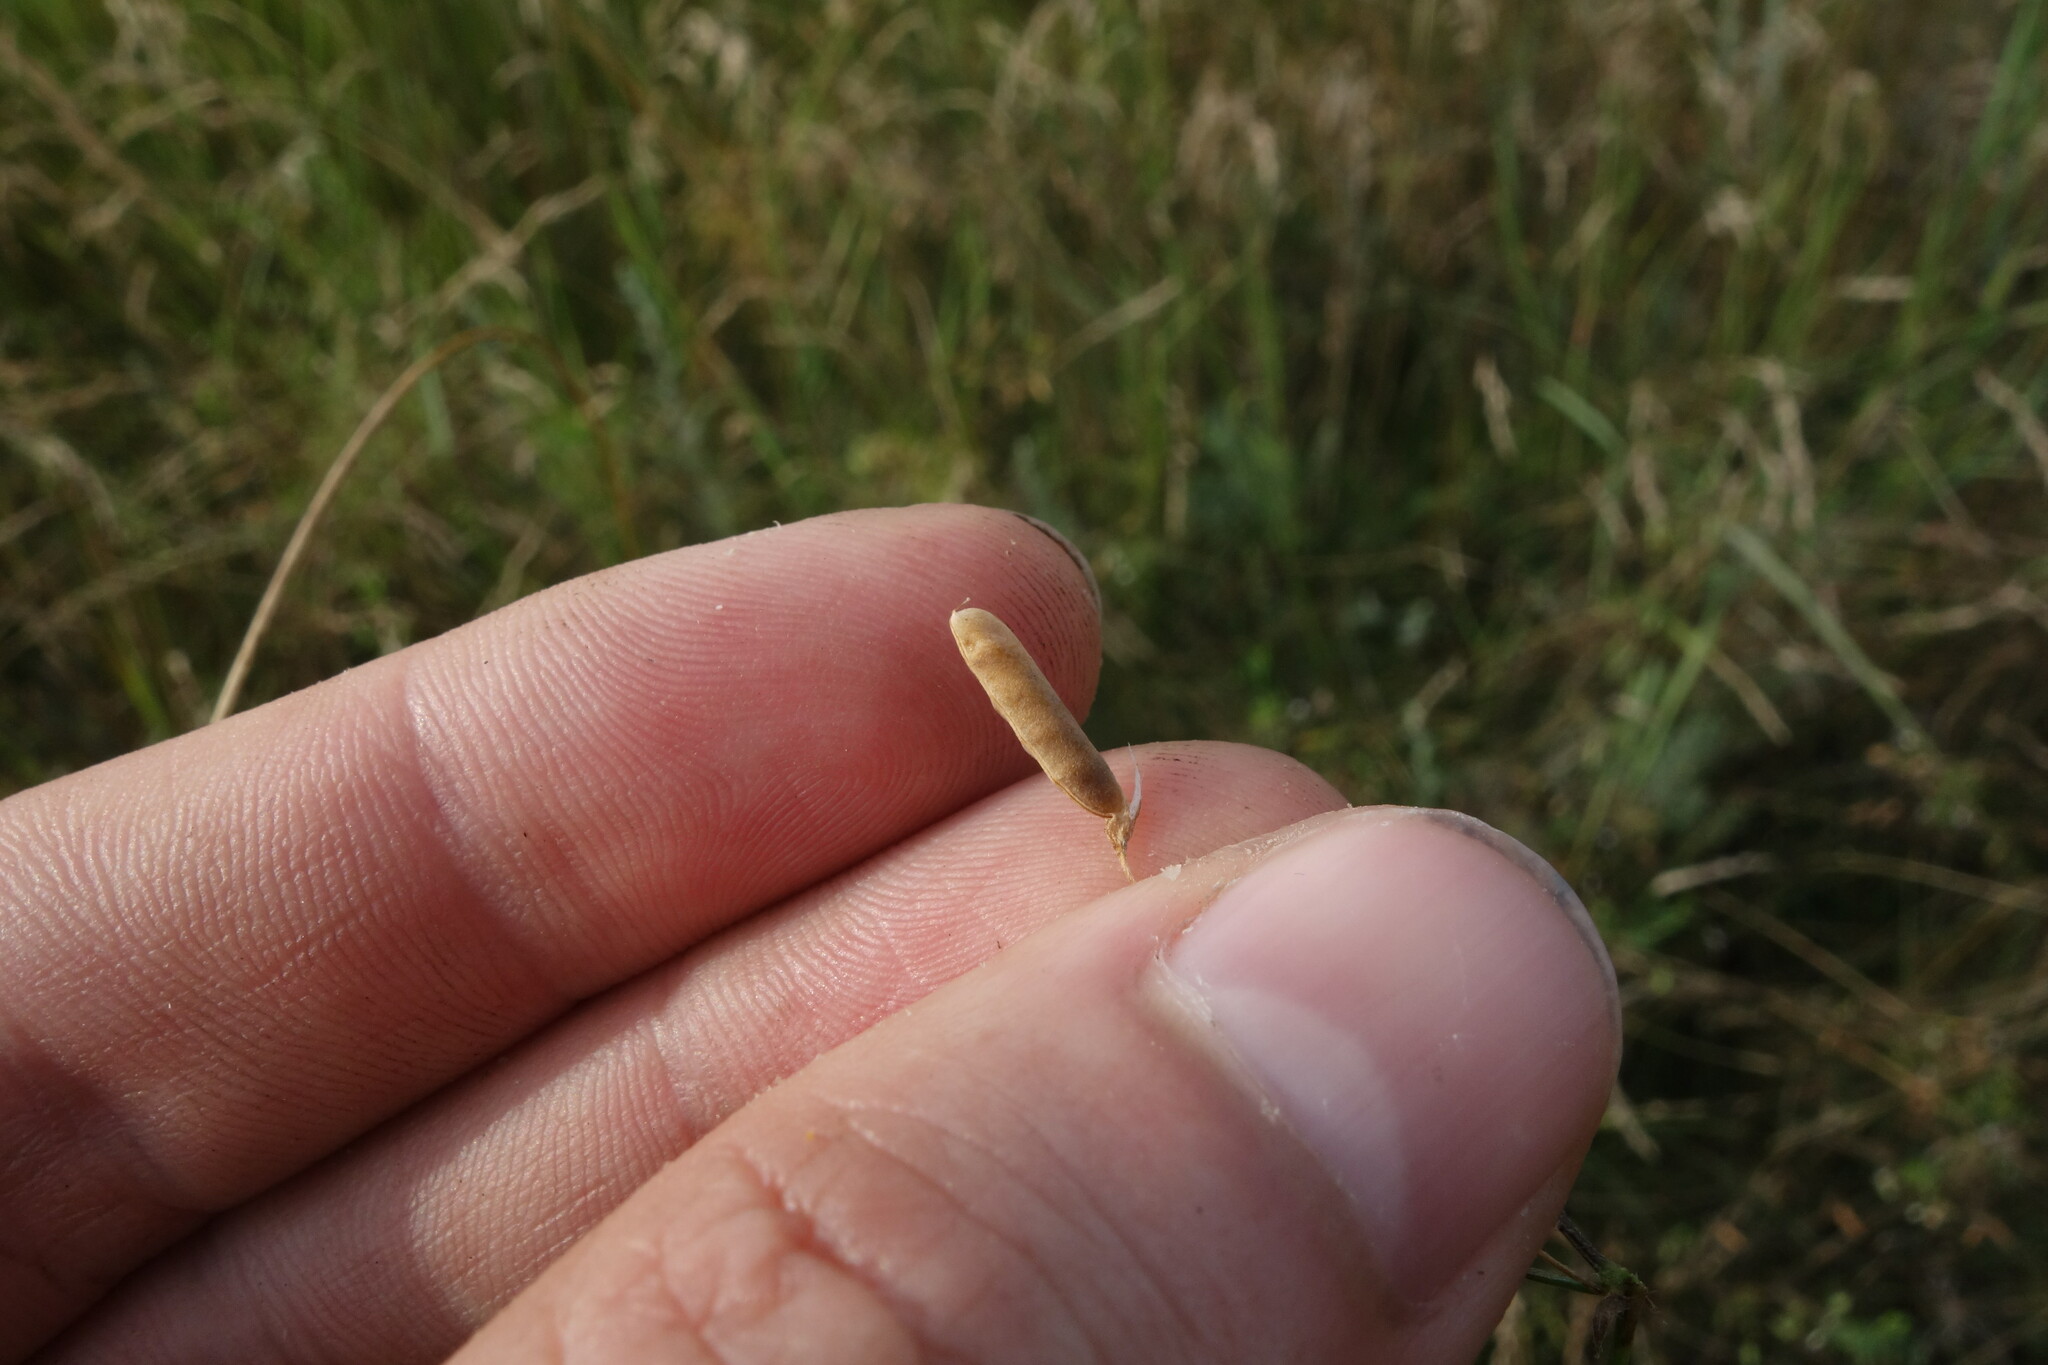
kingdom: Plantae
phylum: Tracheophyta
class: Magnoliopsida
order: Fabales
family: Fabaceae
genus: Vicia
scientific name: Vicia tetrasperma
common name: Smooth tare
